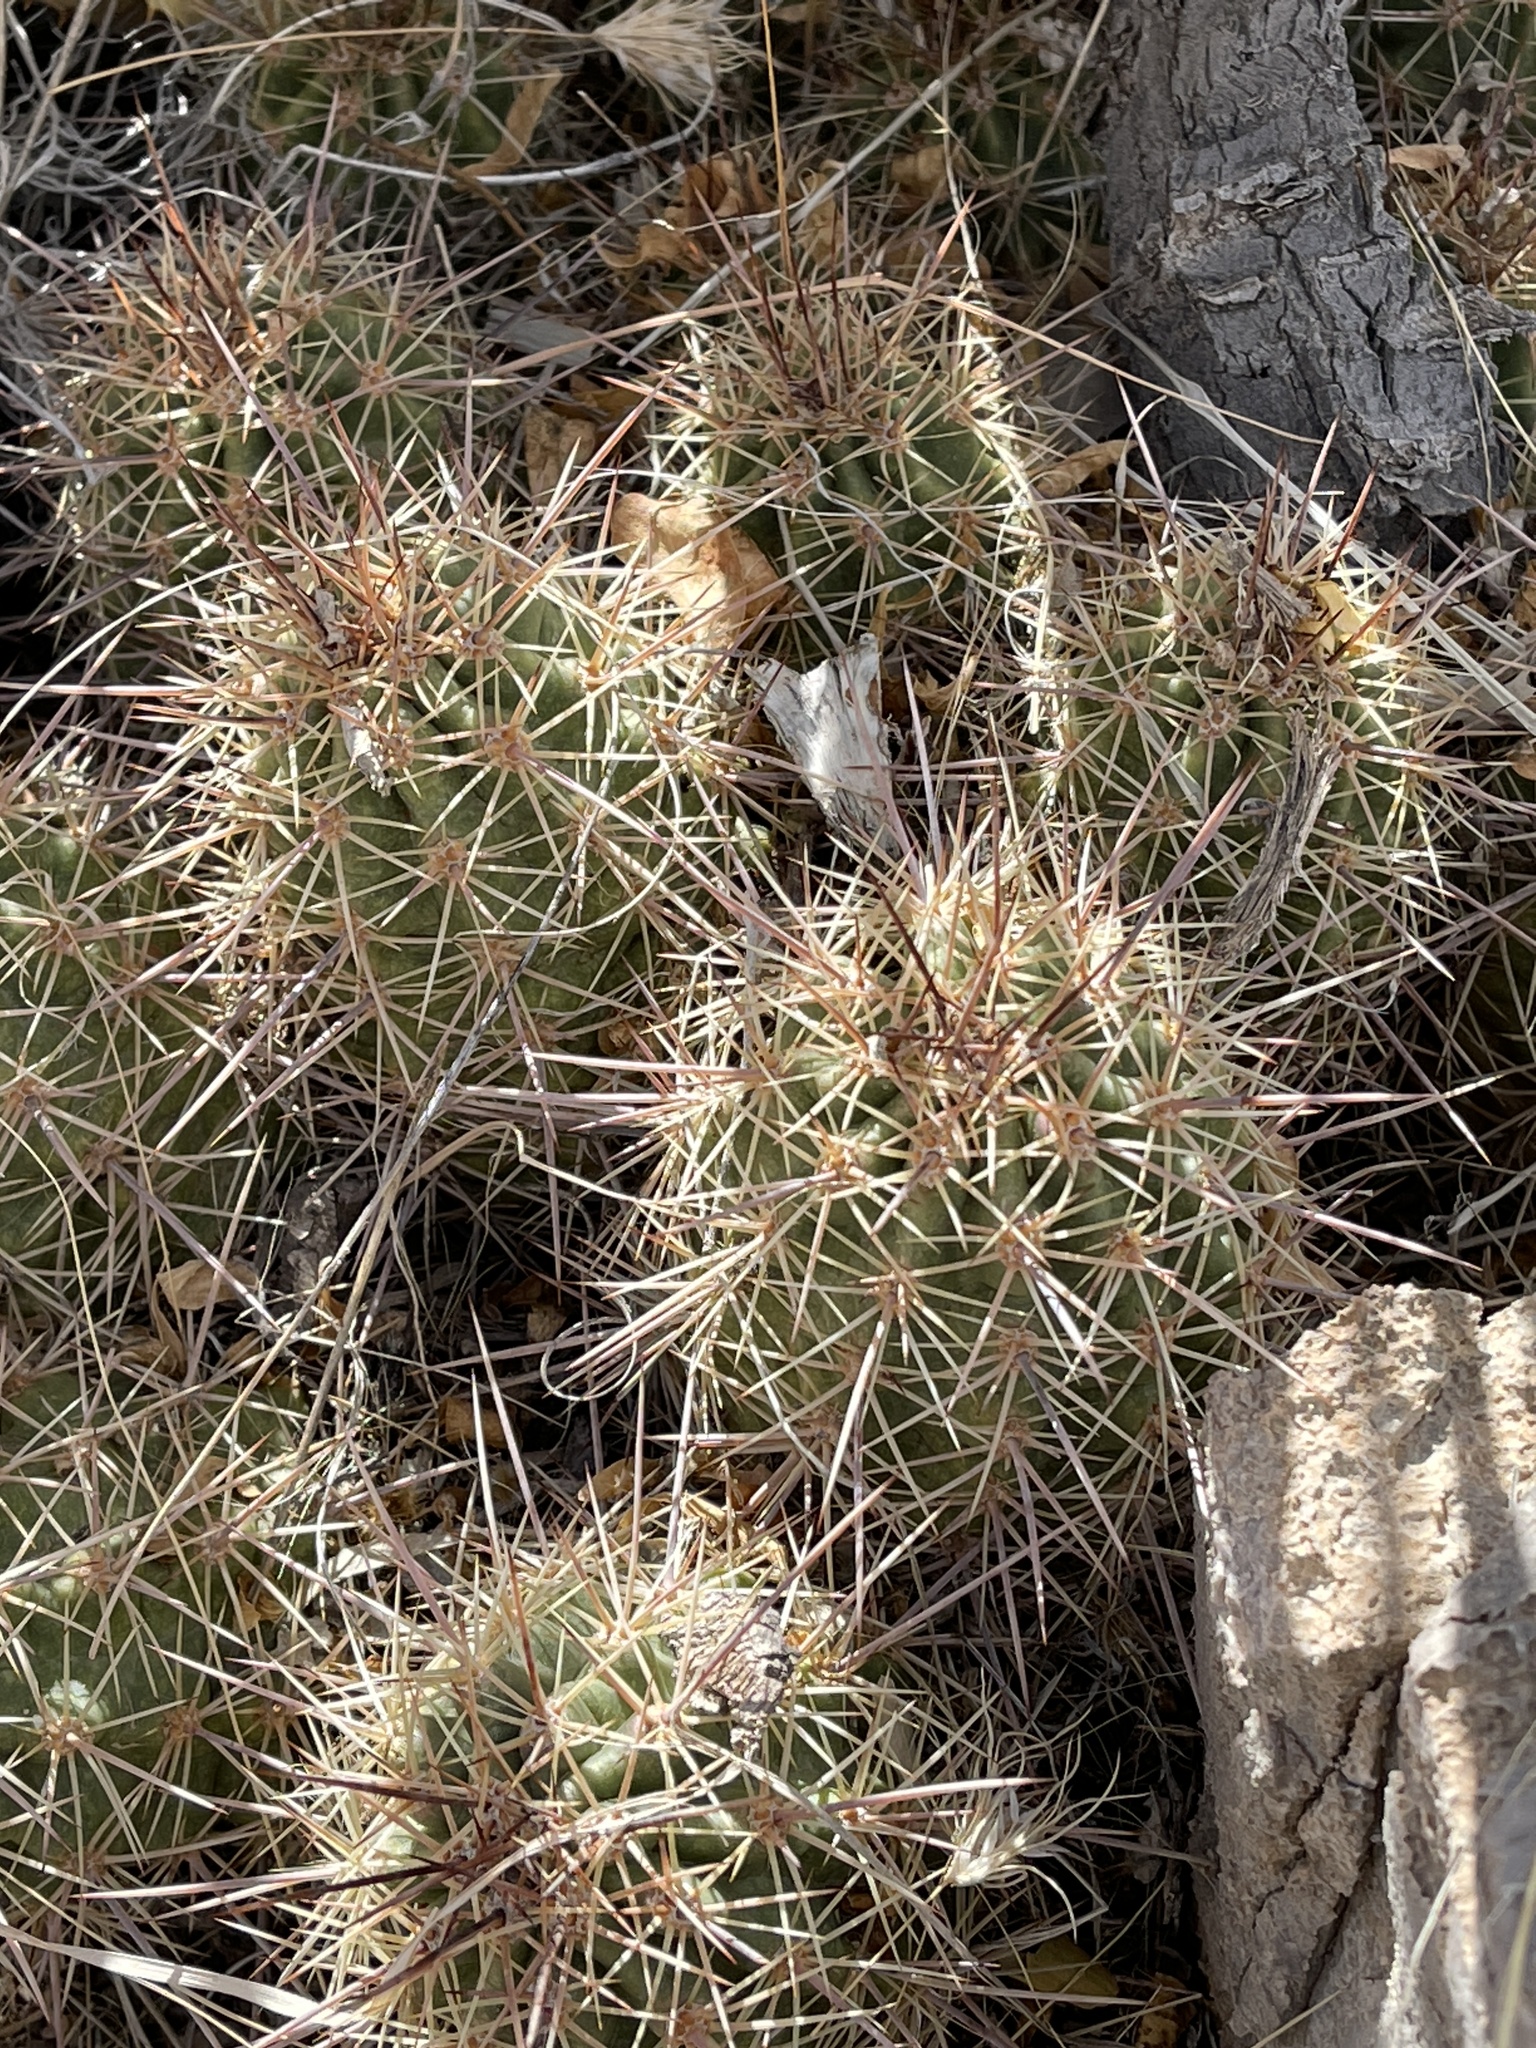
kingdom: Plantae
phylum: Tracheophyta
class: Magnoliopsida
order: Caryophyllales
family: Cactaceae
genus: Echinocereus
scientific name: Echinocereus coccineus
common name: Scarlet hedgehog cactus
